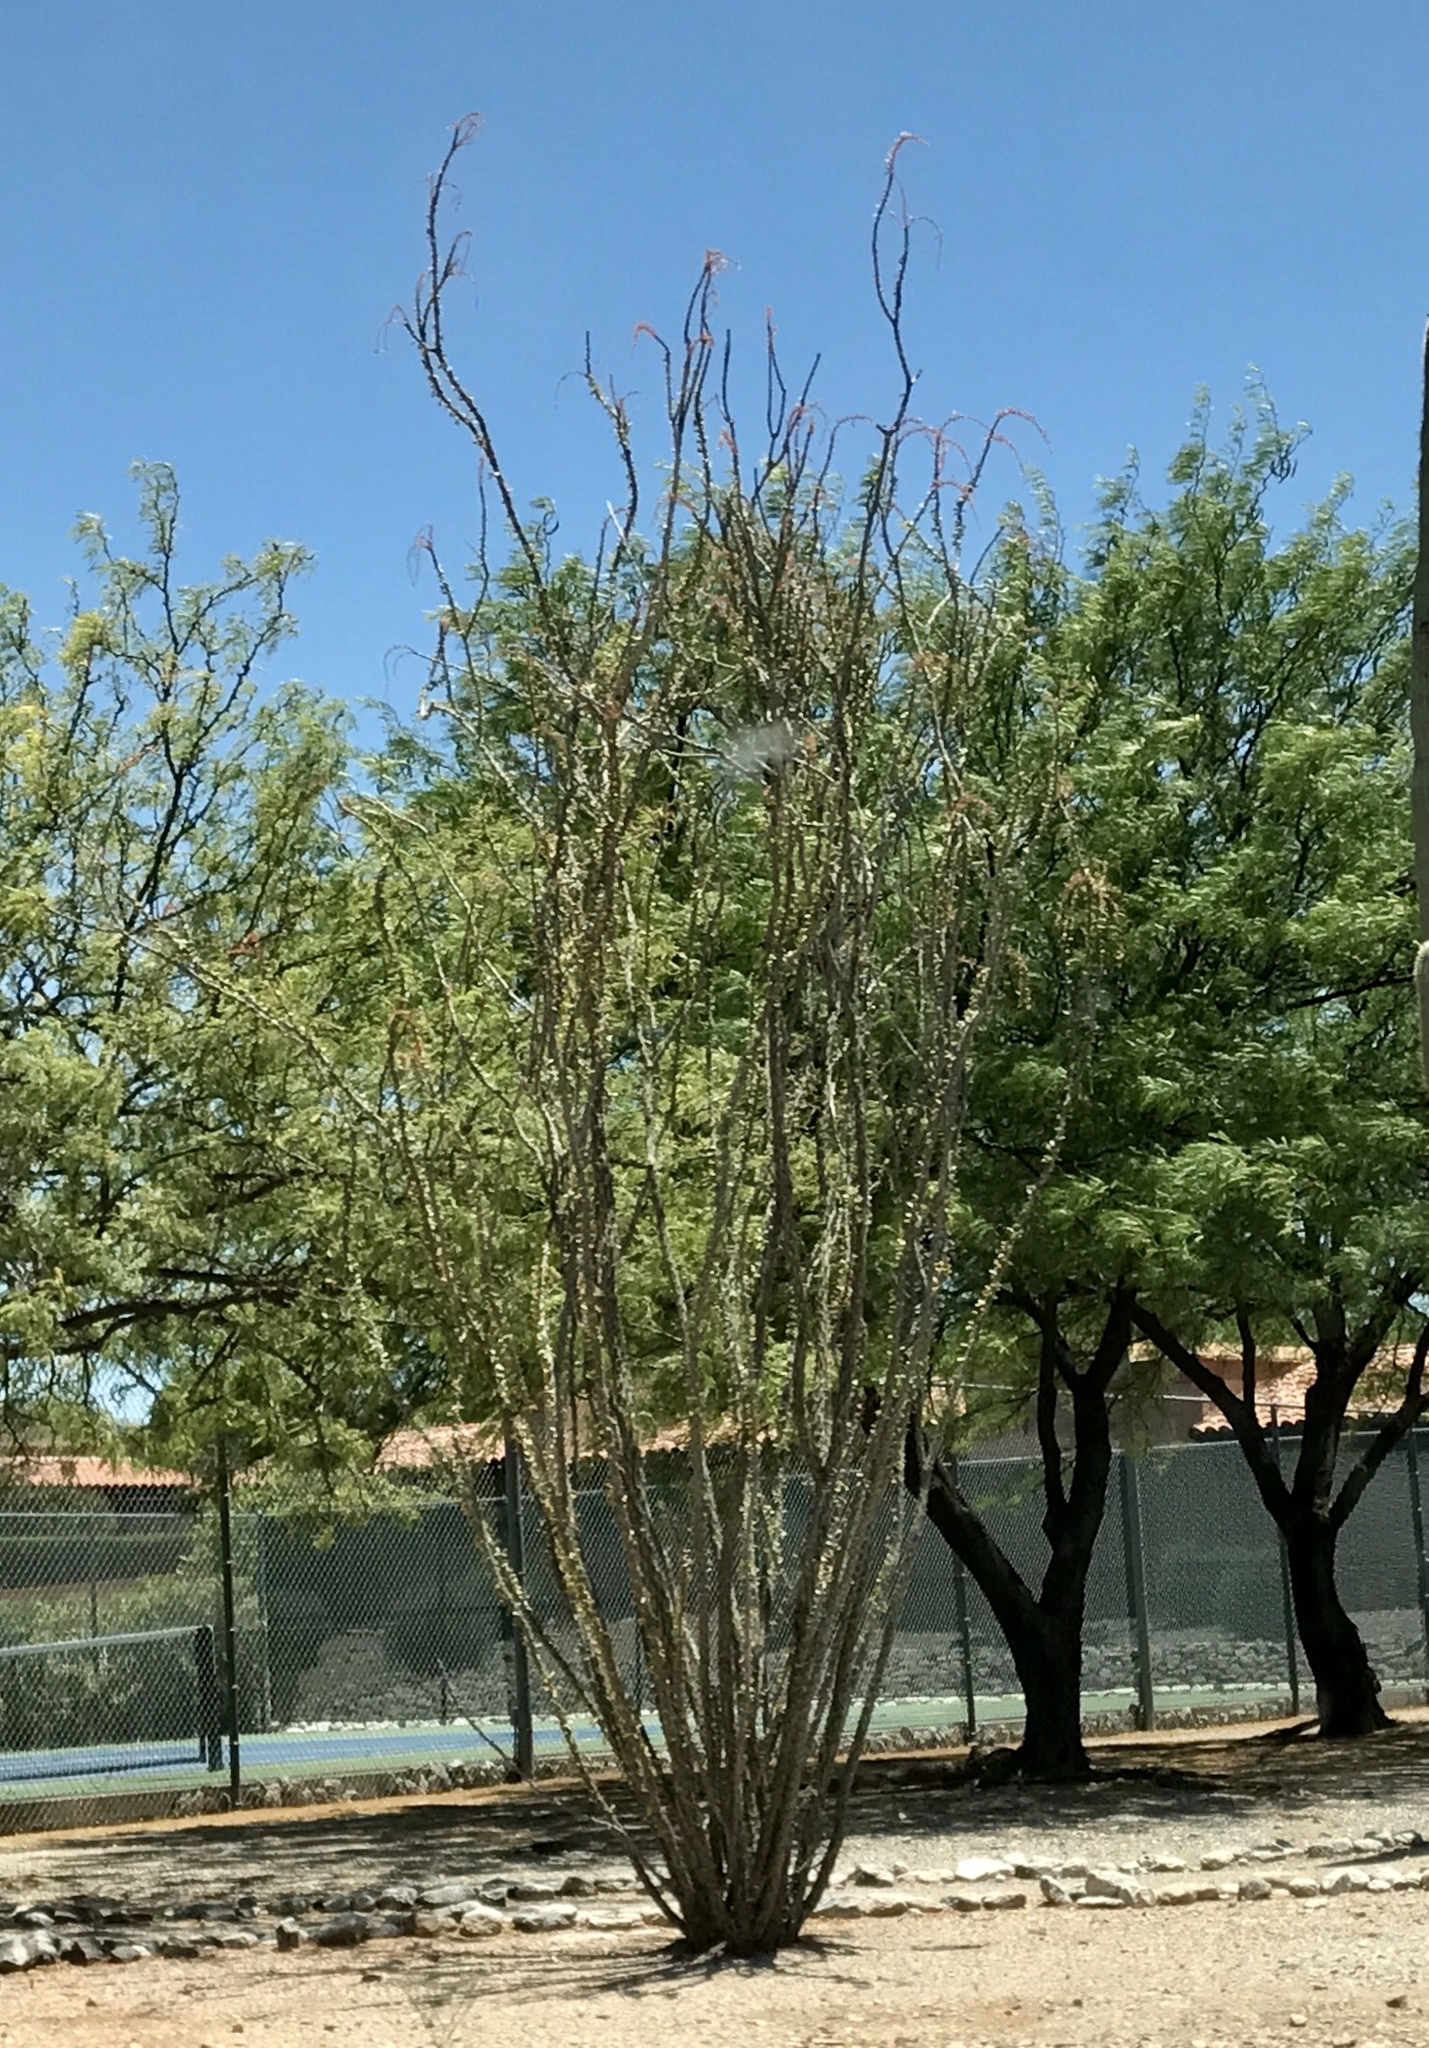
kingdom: Plantae
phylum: Tracheophyta
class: Magnoliopsida
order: Ericales
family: Fouquieriaceae
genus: Fouquieria
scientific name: Fouquieria splendens
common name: Vine-cactus
